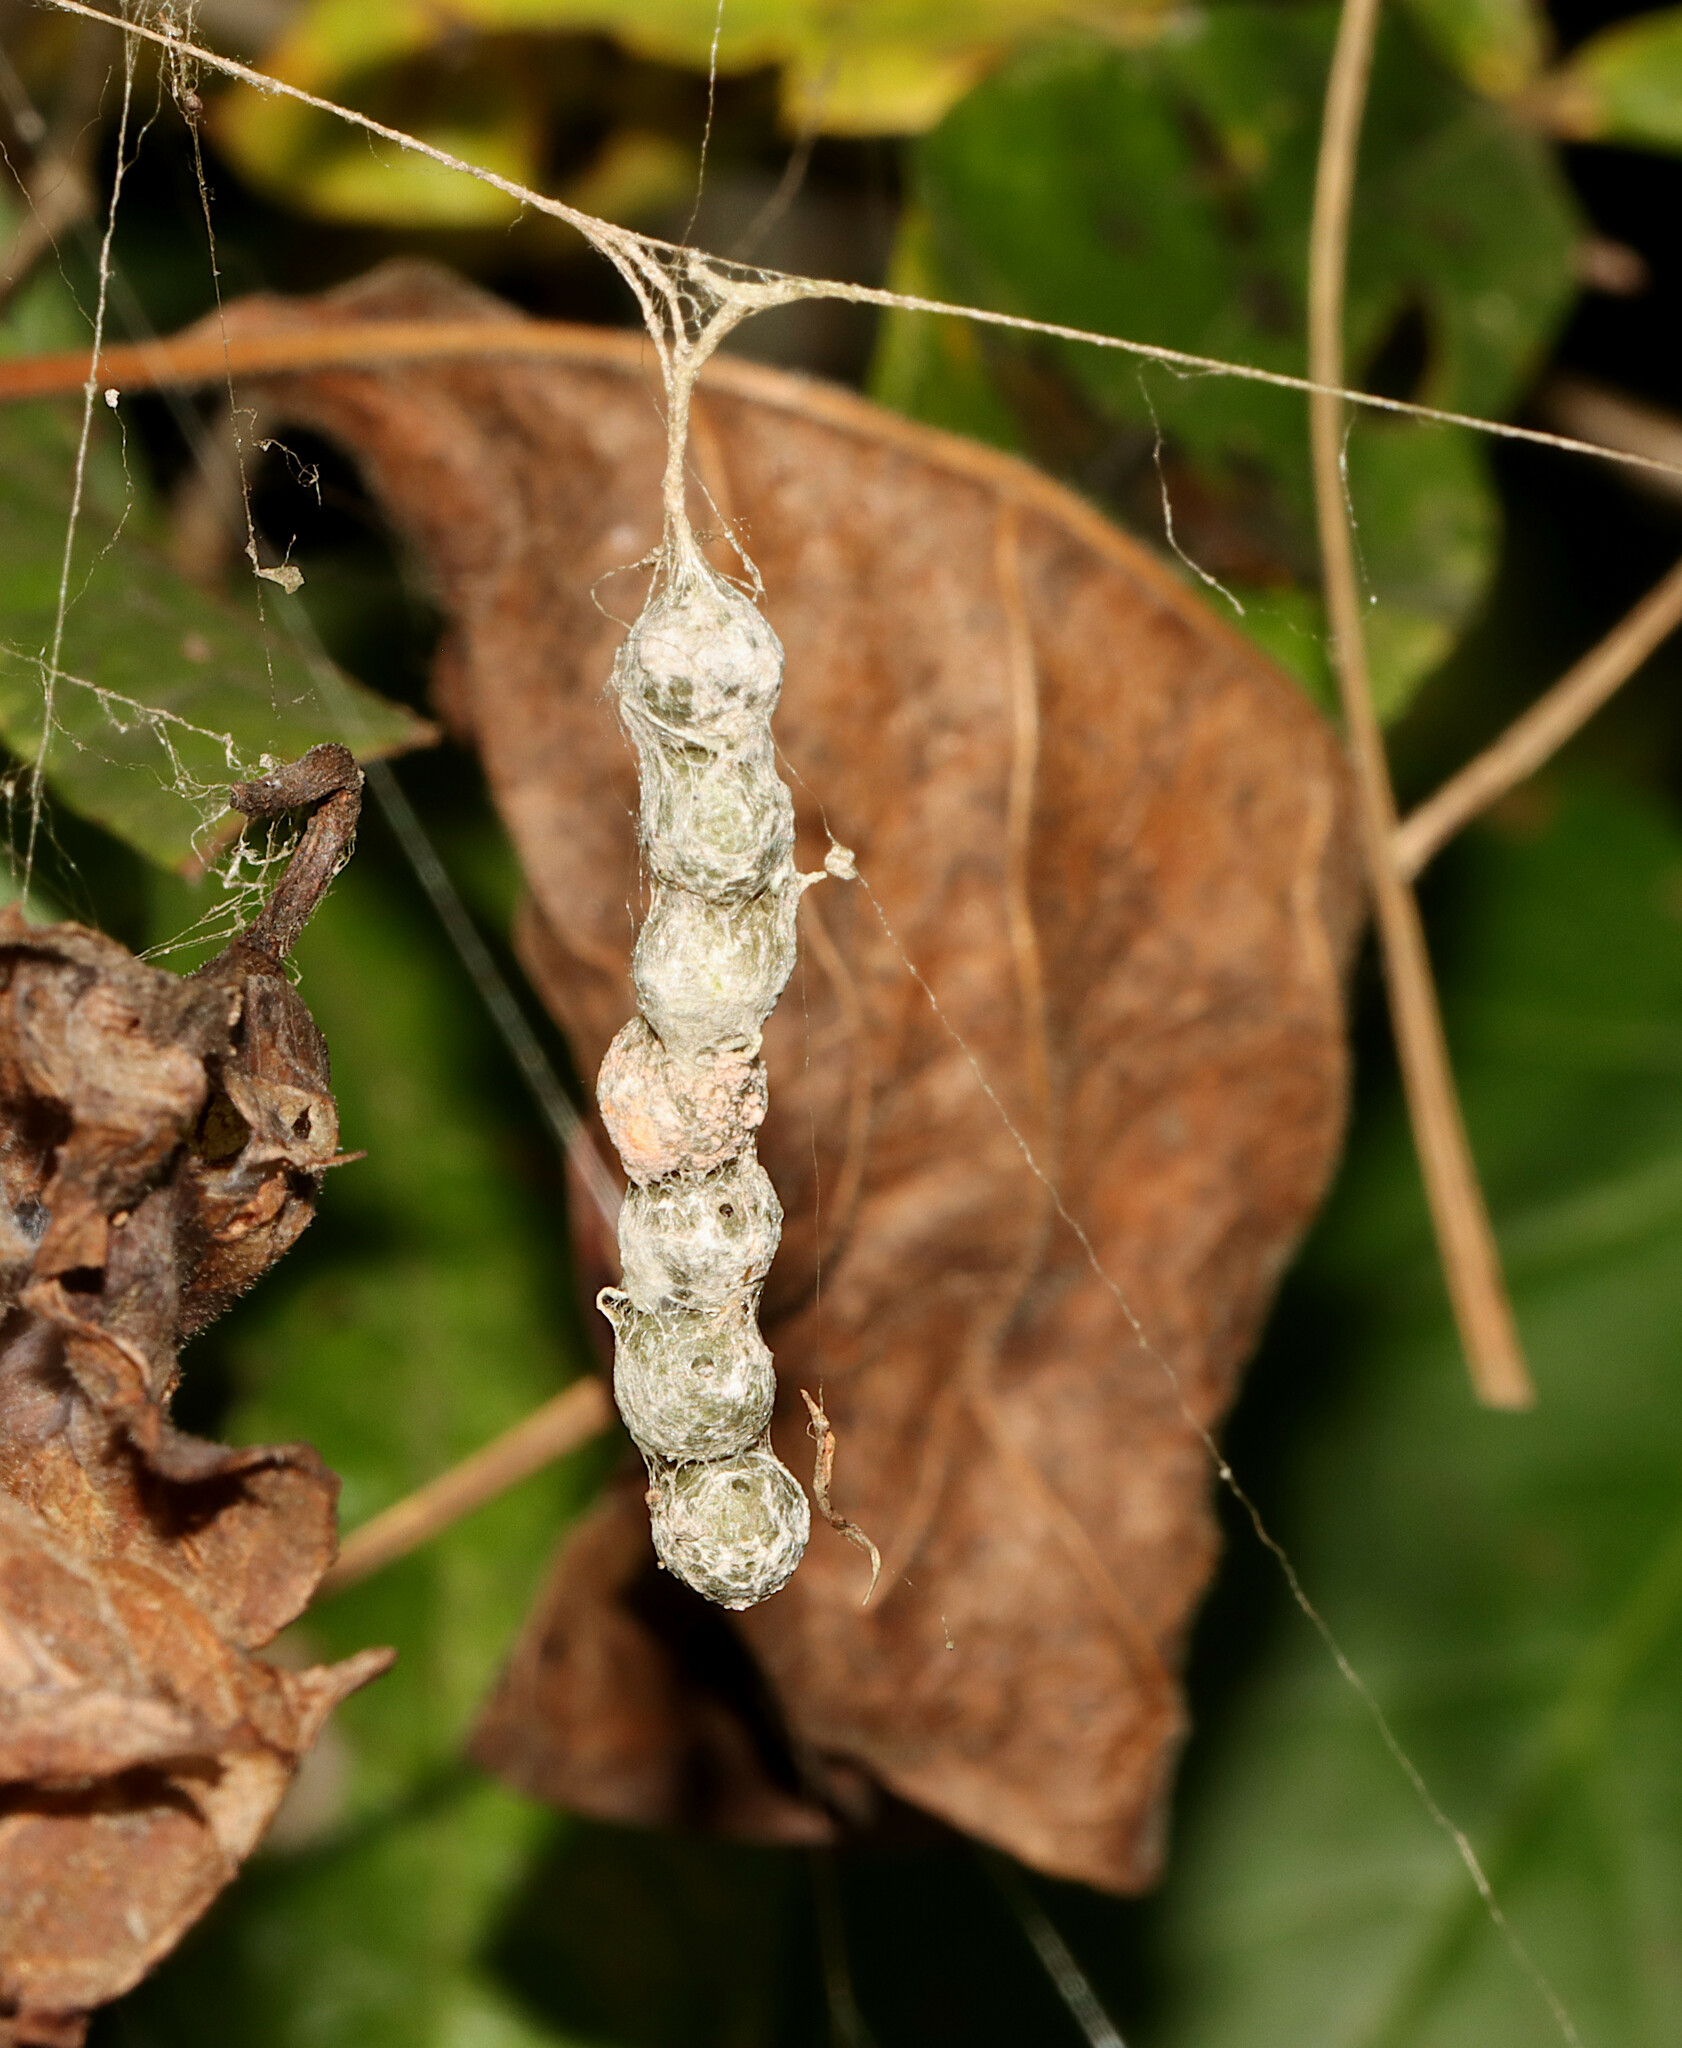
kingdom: Animalia
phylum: Arthropoda
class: Arachnida
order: Araneae
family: Araneidae
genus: Mecynogea
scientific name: Mecynogea lemniscata
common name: Orb weavers
